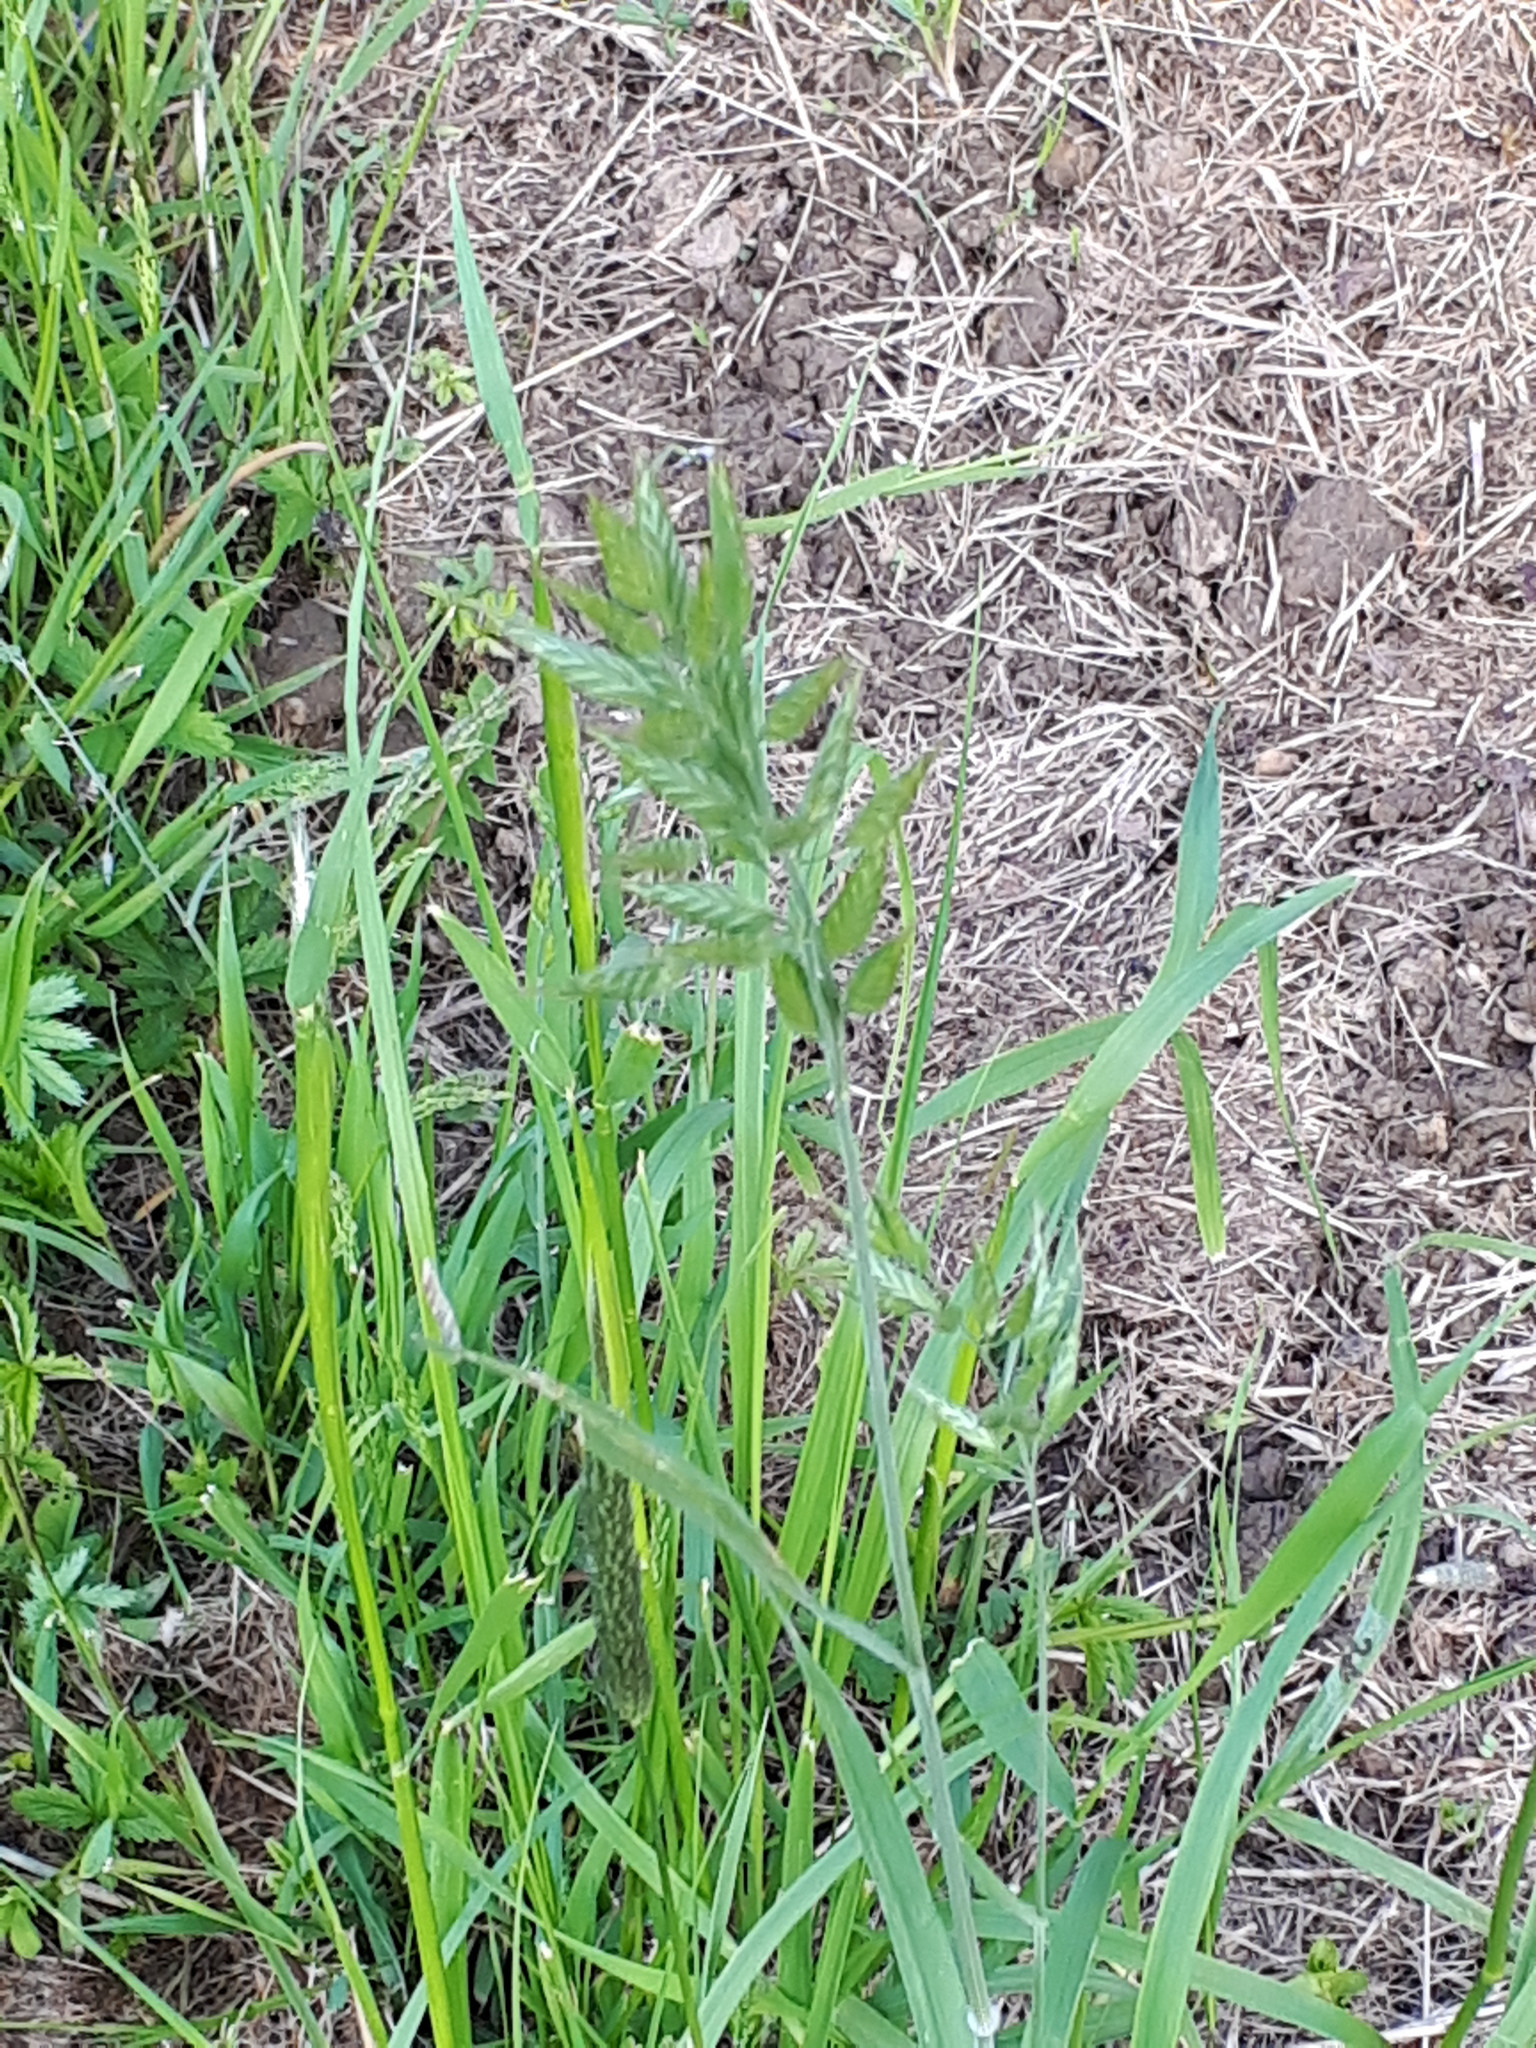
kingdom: Plantae
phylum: Tracheophyta
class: Liliopsida
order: Poales
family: Poaceae
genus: Bromus
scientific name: Bromus hordeaceus
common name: Soft brome
